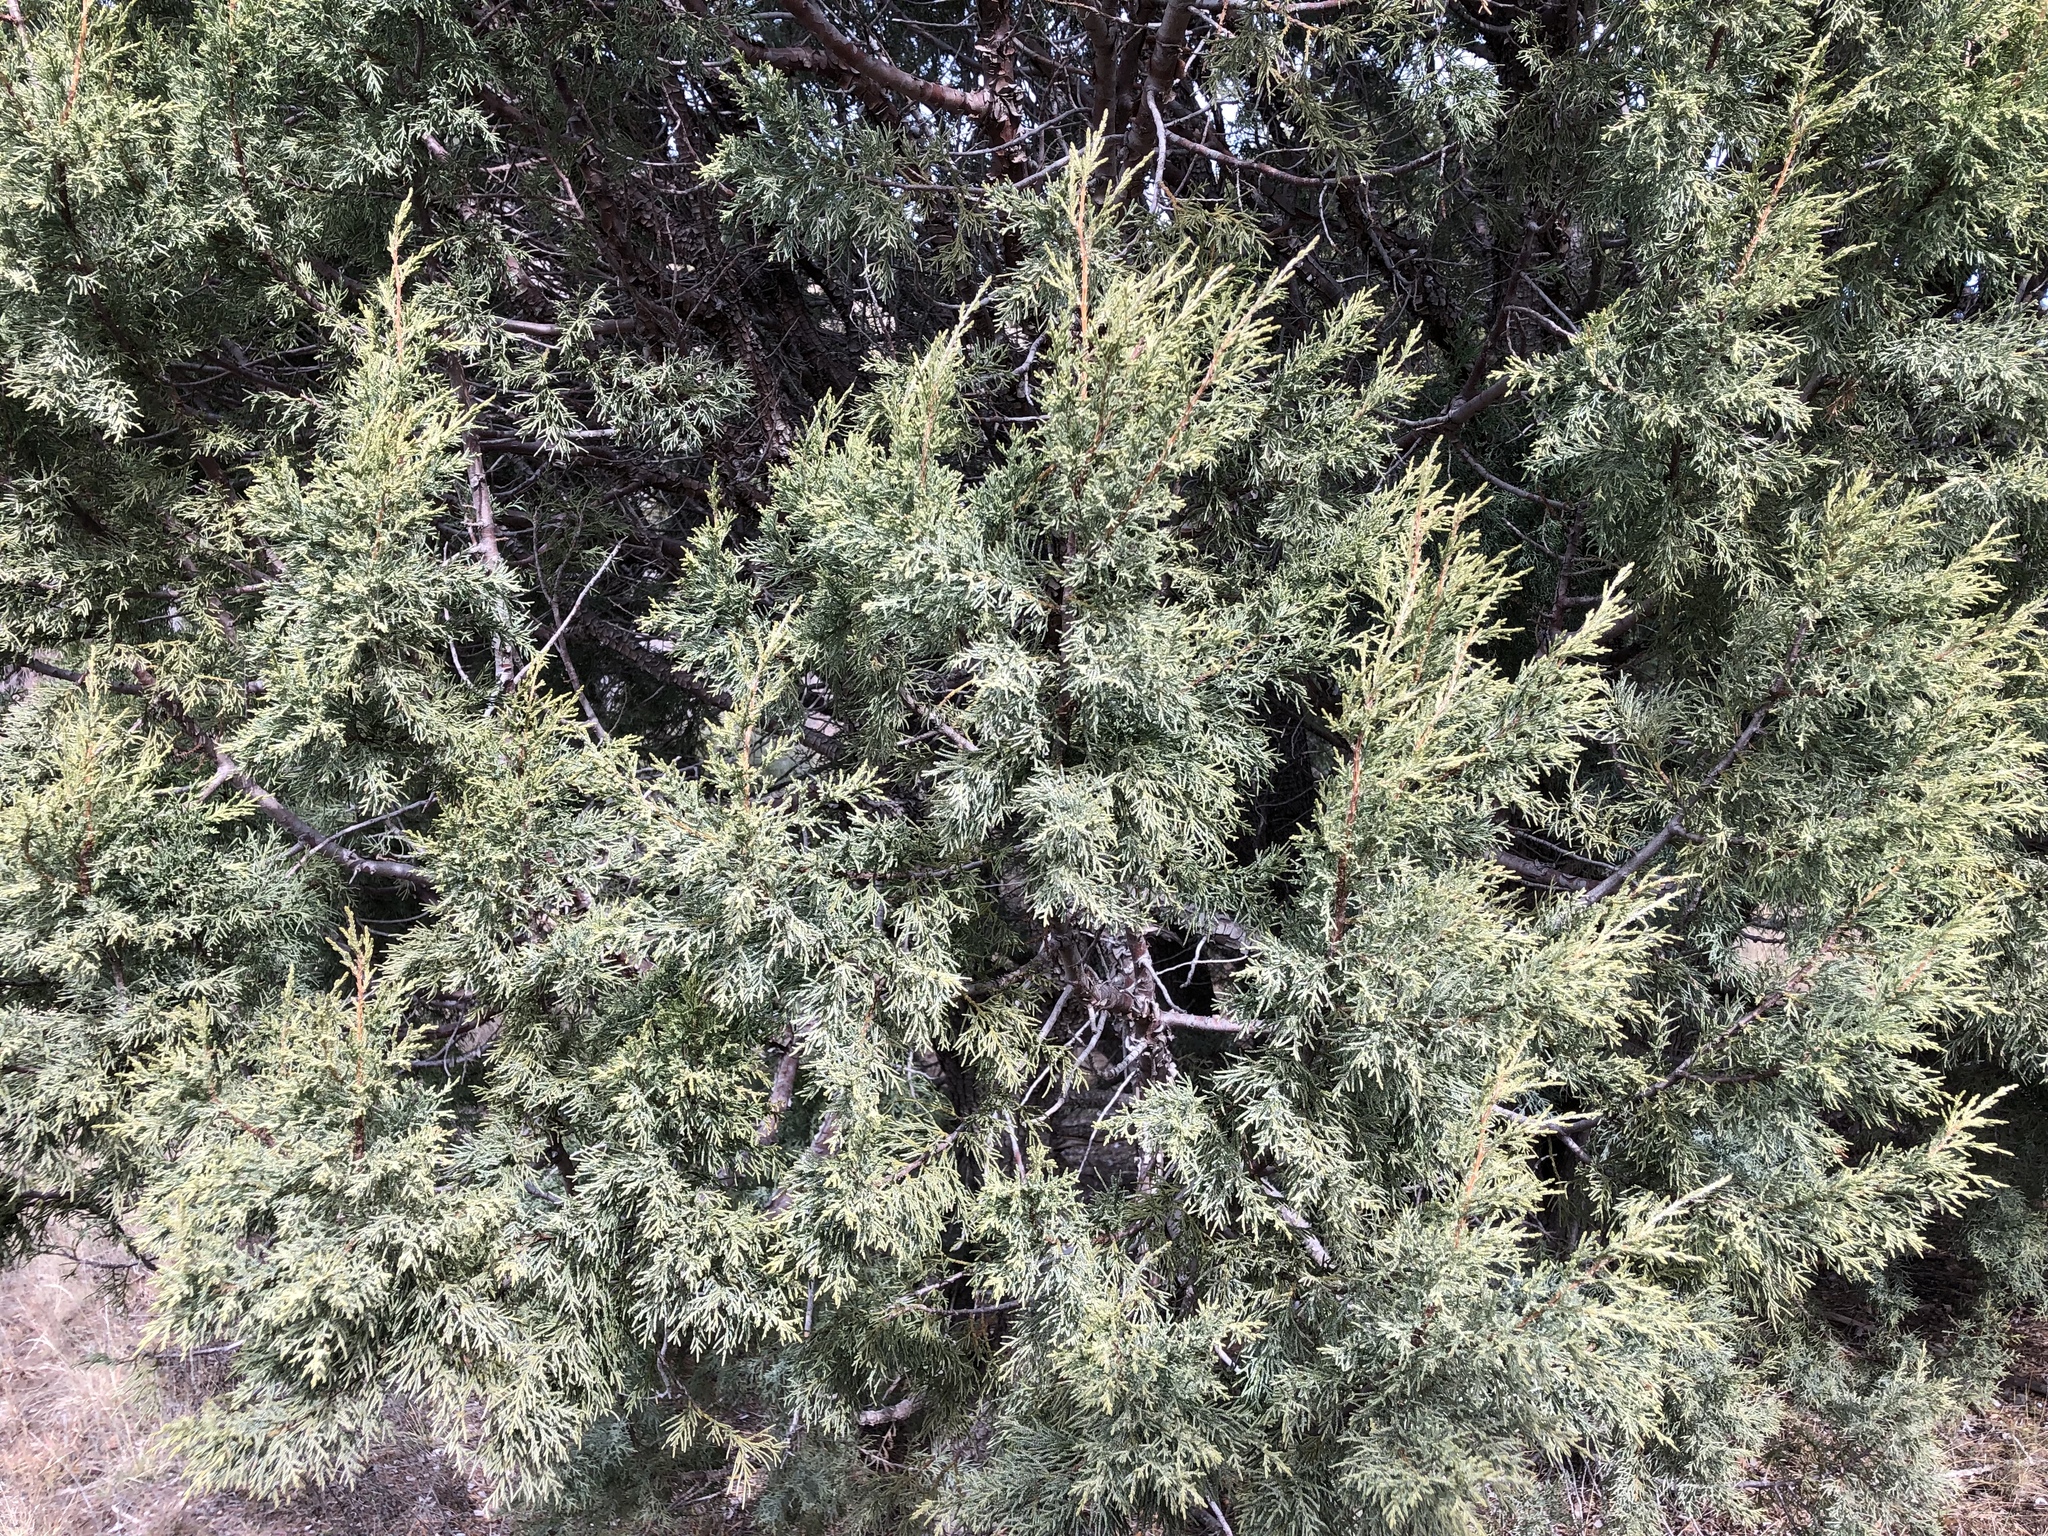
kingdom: Plantae
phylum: Tracheophyta
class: Pinopsida
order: Pinales
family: Cupressaceae
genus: Juniperus
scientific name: Juniperus deppeana
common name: Alligator juniper
